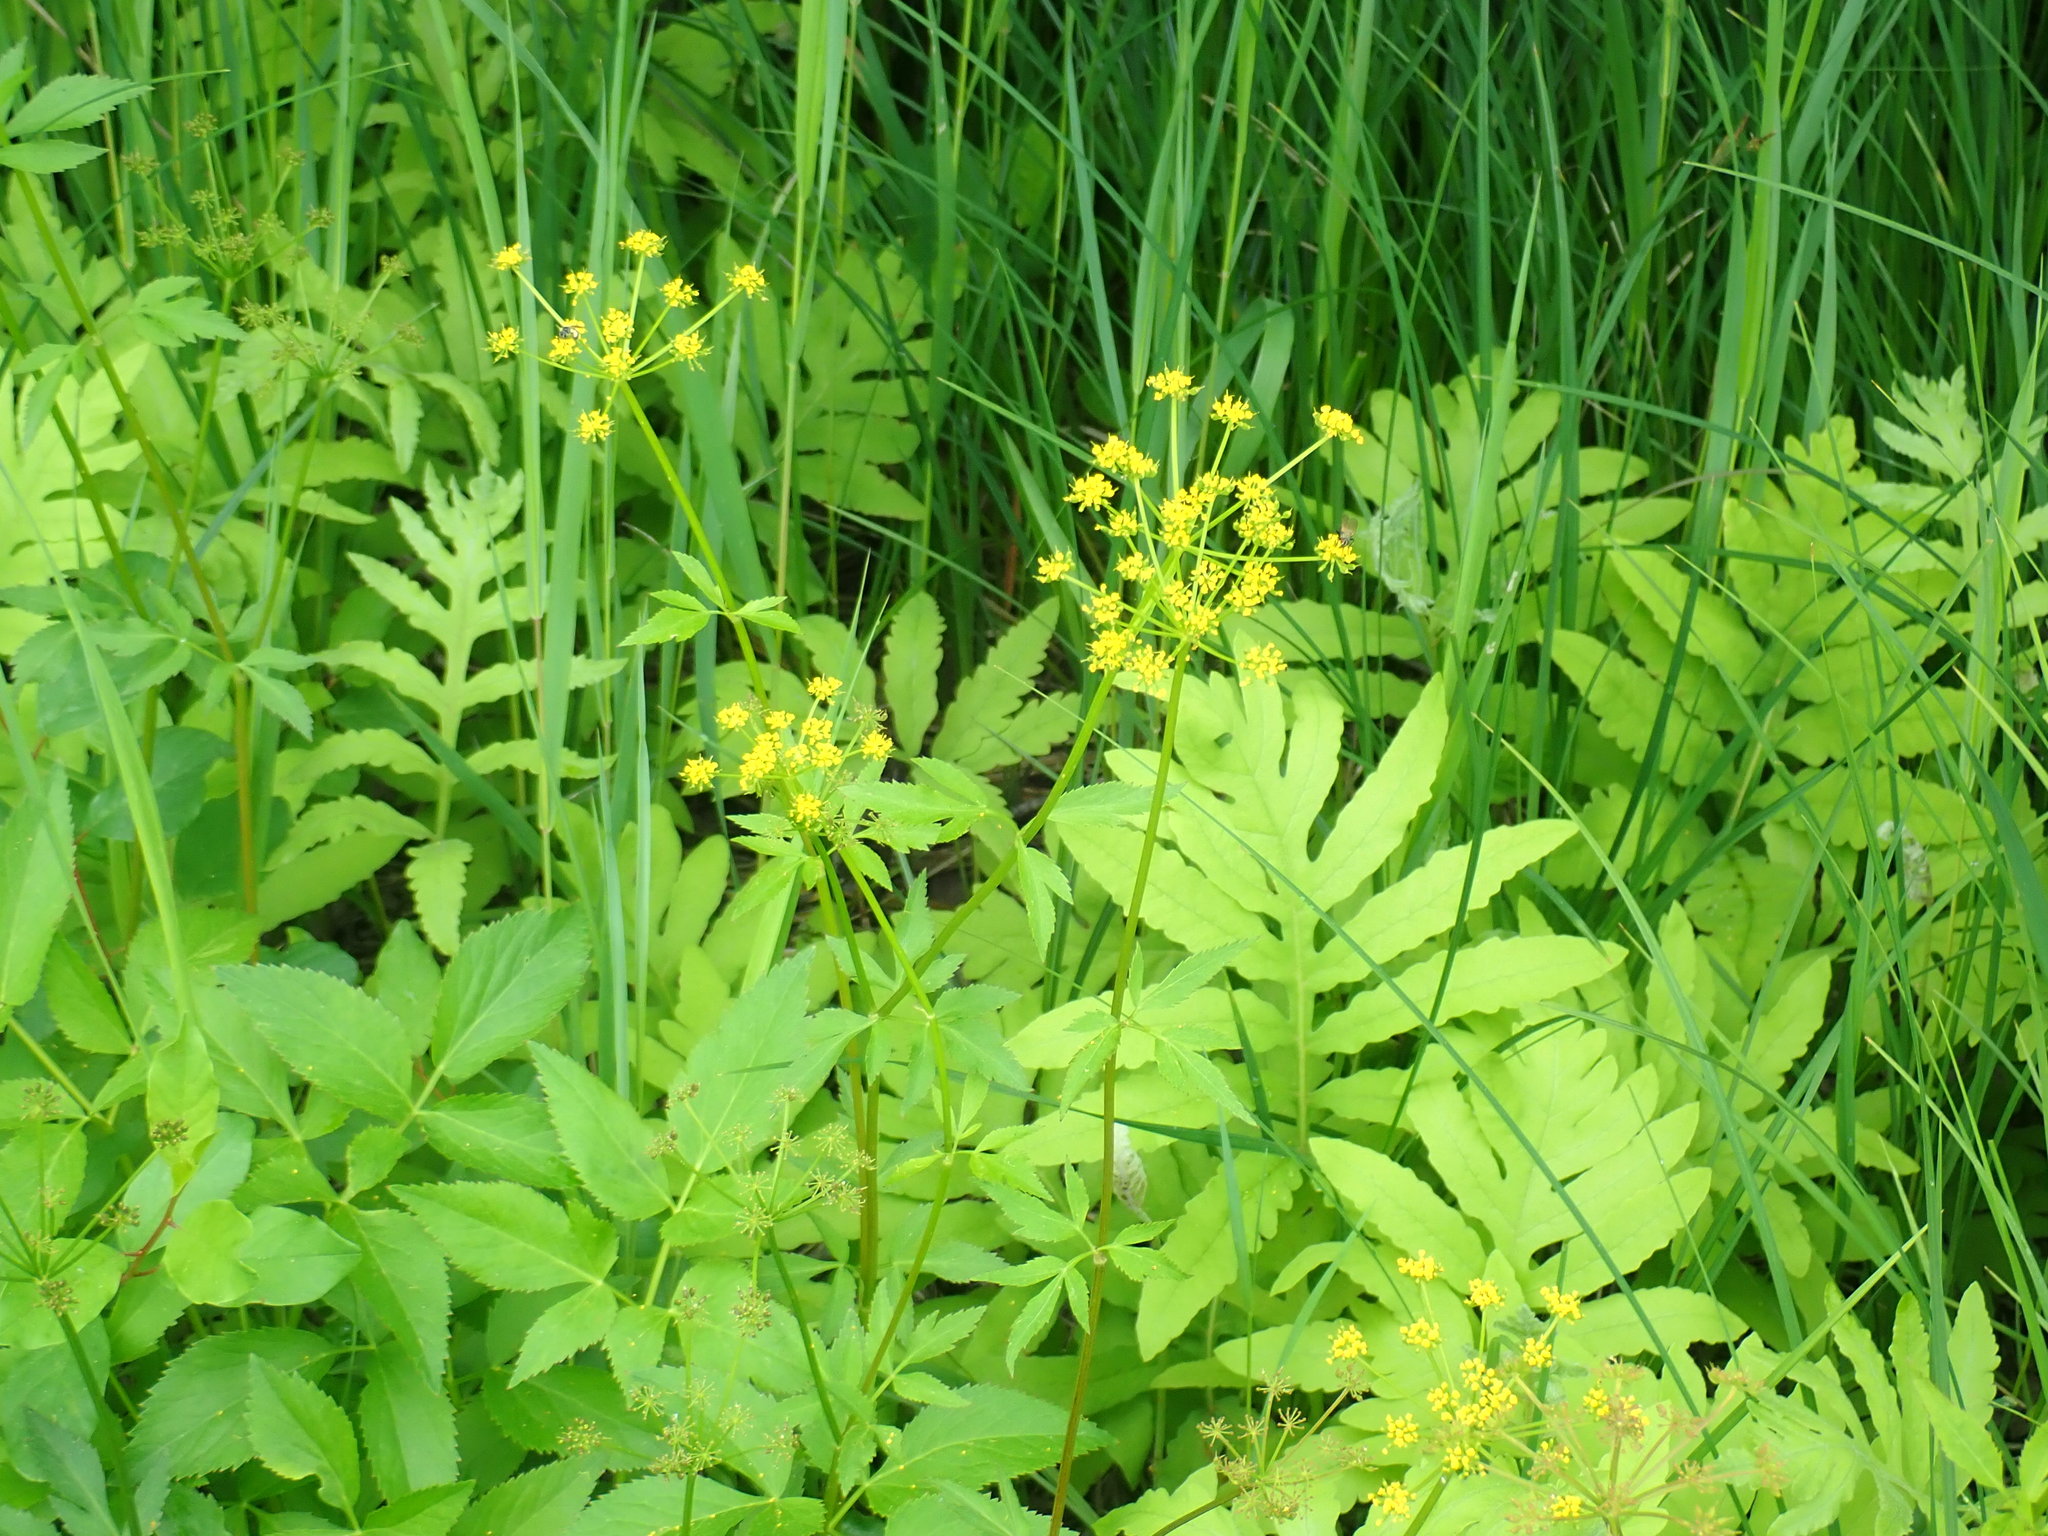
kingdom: Plantae
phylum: Tracheophyta
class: Magnoliopsida
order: Apiales
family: Apiaceae
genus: Zizia
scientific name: Zizia aurea
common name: Golden alexanders
